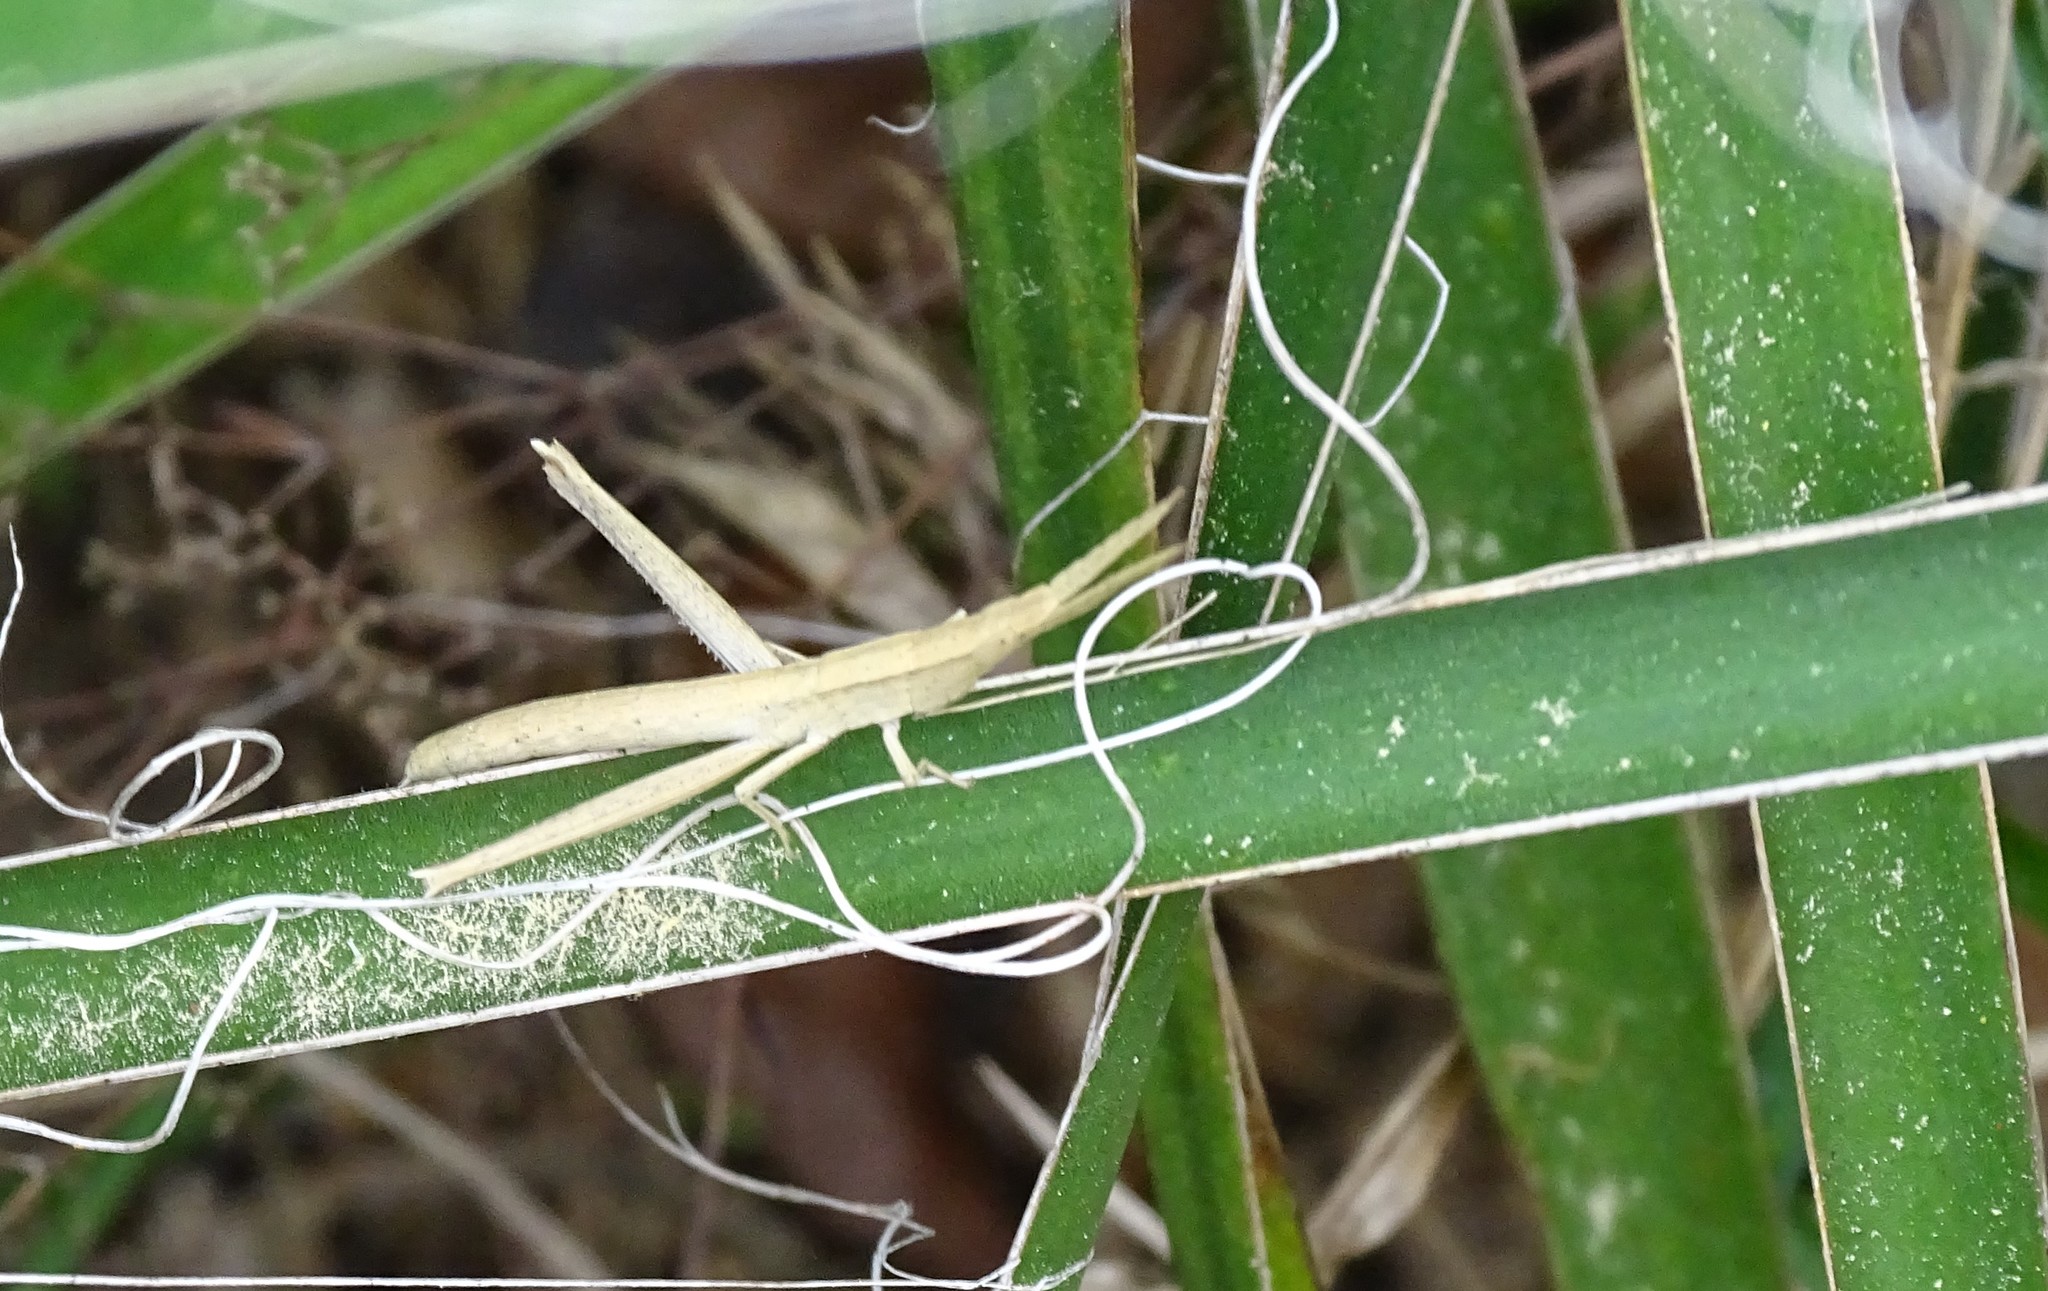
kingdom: Animalia
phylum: Arthropoda
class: Insecta
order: Orthoptera
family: Acrididae
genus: Achurum
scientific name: Achurum carinatum
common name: Long-headed toothpick grasshopper
